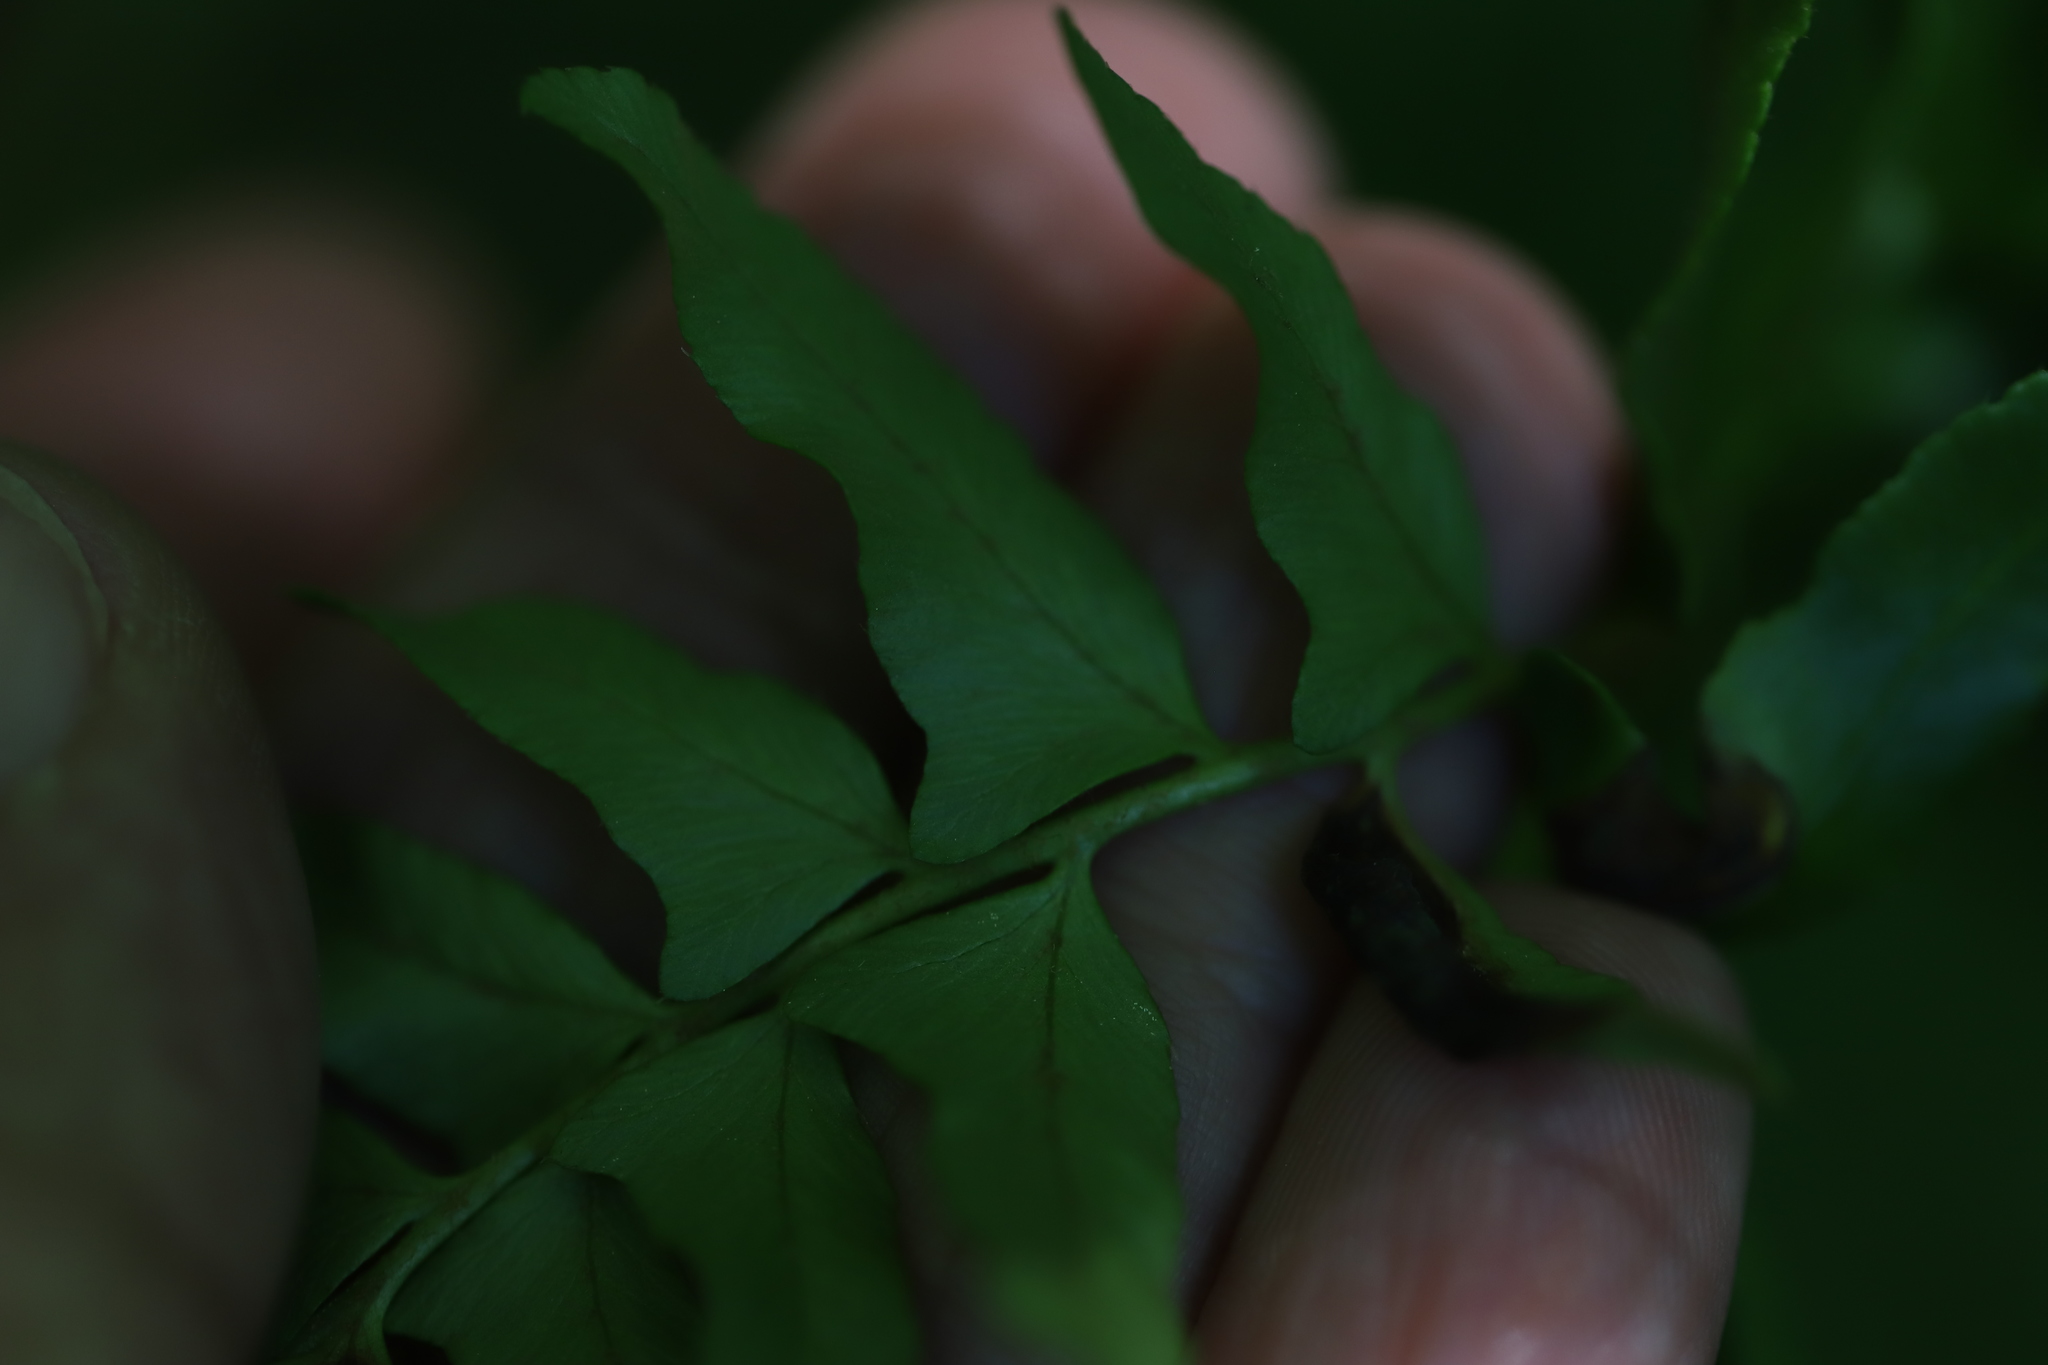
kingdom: Plantae
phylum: Tracheophyta
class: Polypodiopsida
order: Polypodiales
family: Dryopteridaceae
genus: Polystichum
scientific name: Polystichum acrostichoides
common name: Christmas fern
